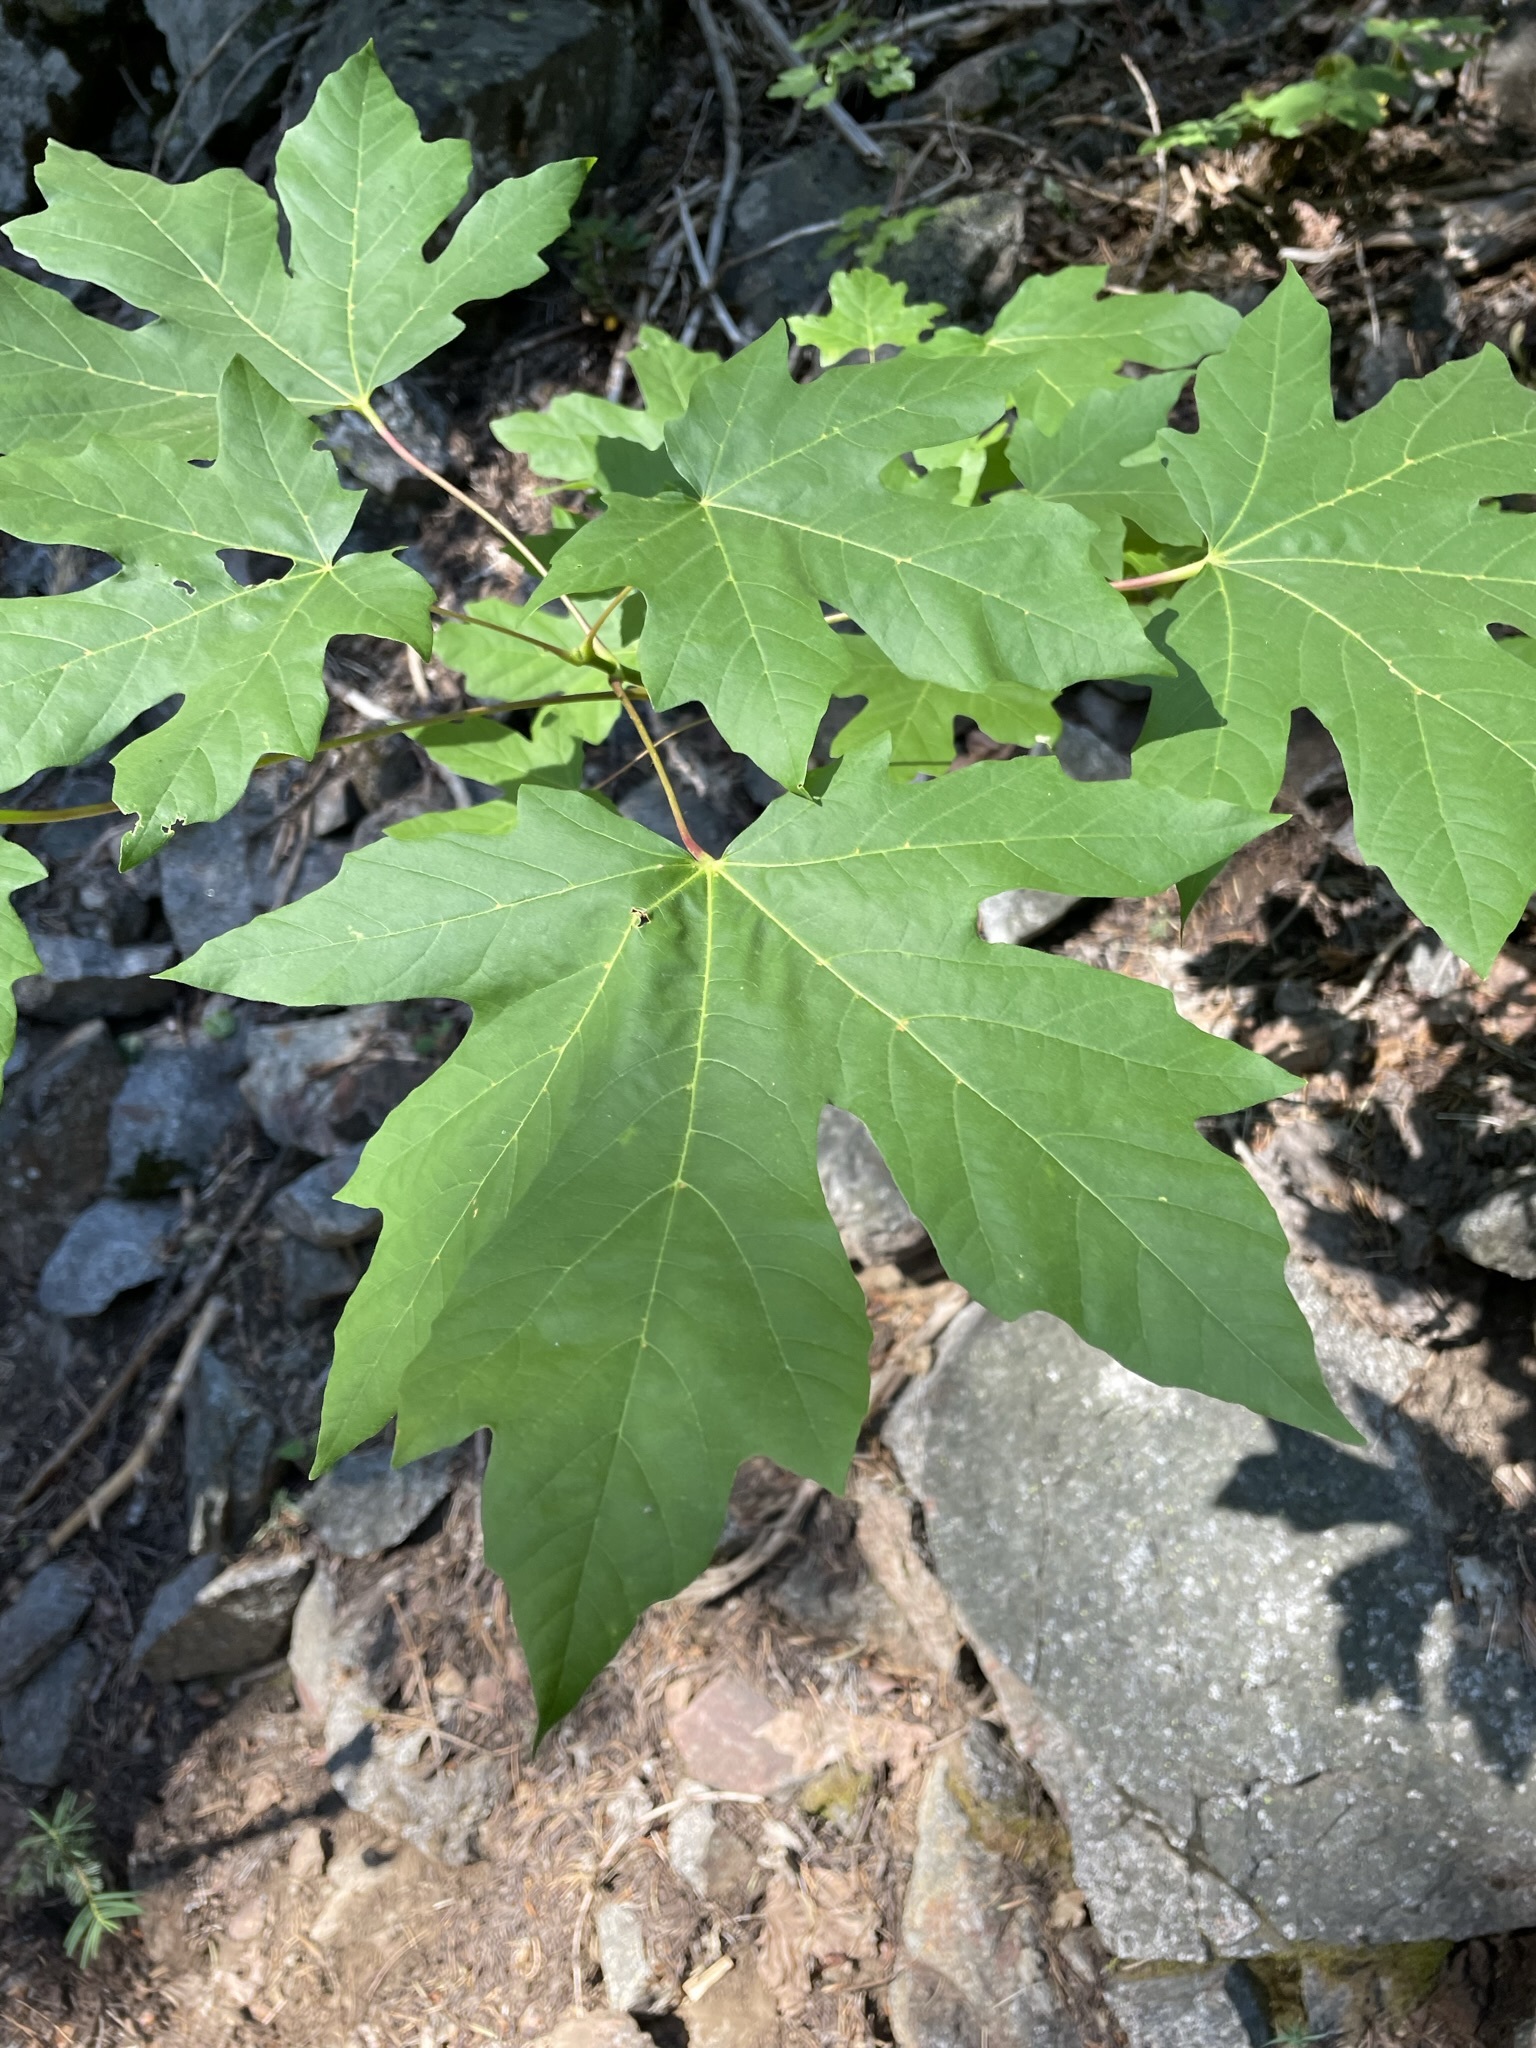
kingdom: Plantae
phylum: Tracheophyta
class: Magnoliopsida
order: Sapindales
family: Sapindaceae
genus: Acer
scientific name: Acer macrophyllum
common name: Oregon maple
